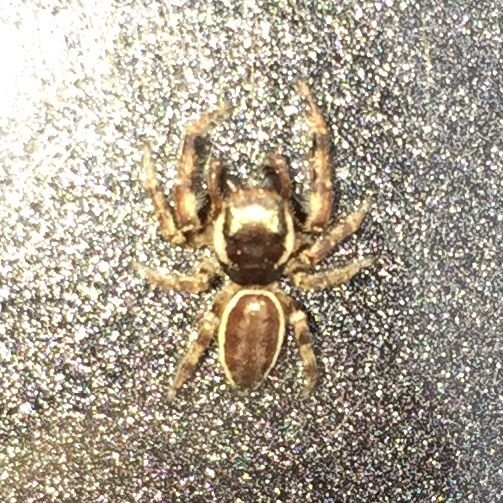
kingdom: Animalia
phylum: Arthropoda
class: Arachnida
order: Araneae
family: Salticidae
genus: Eris
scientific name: Eris militaris
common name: Bronze jumper
